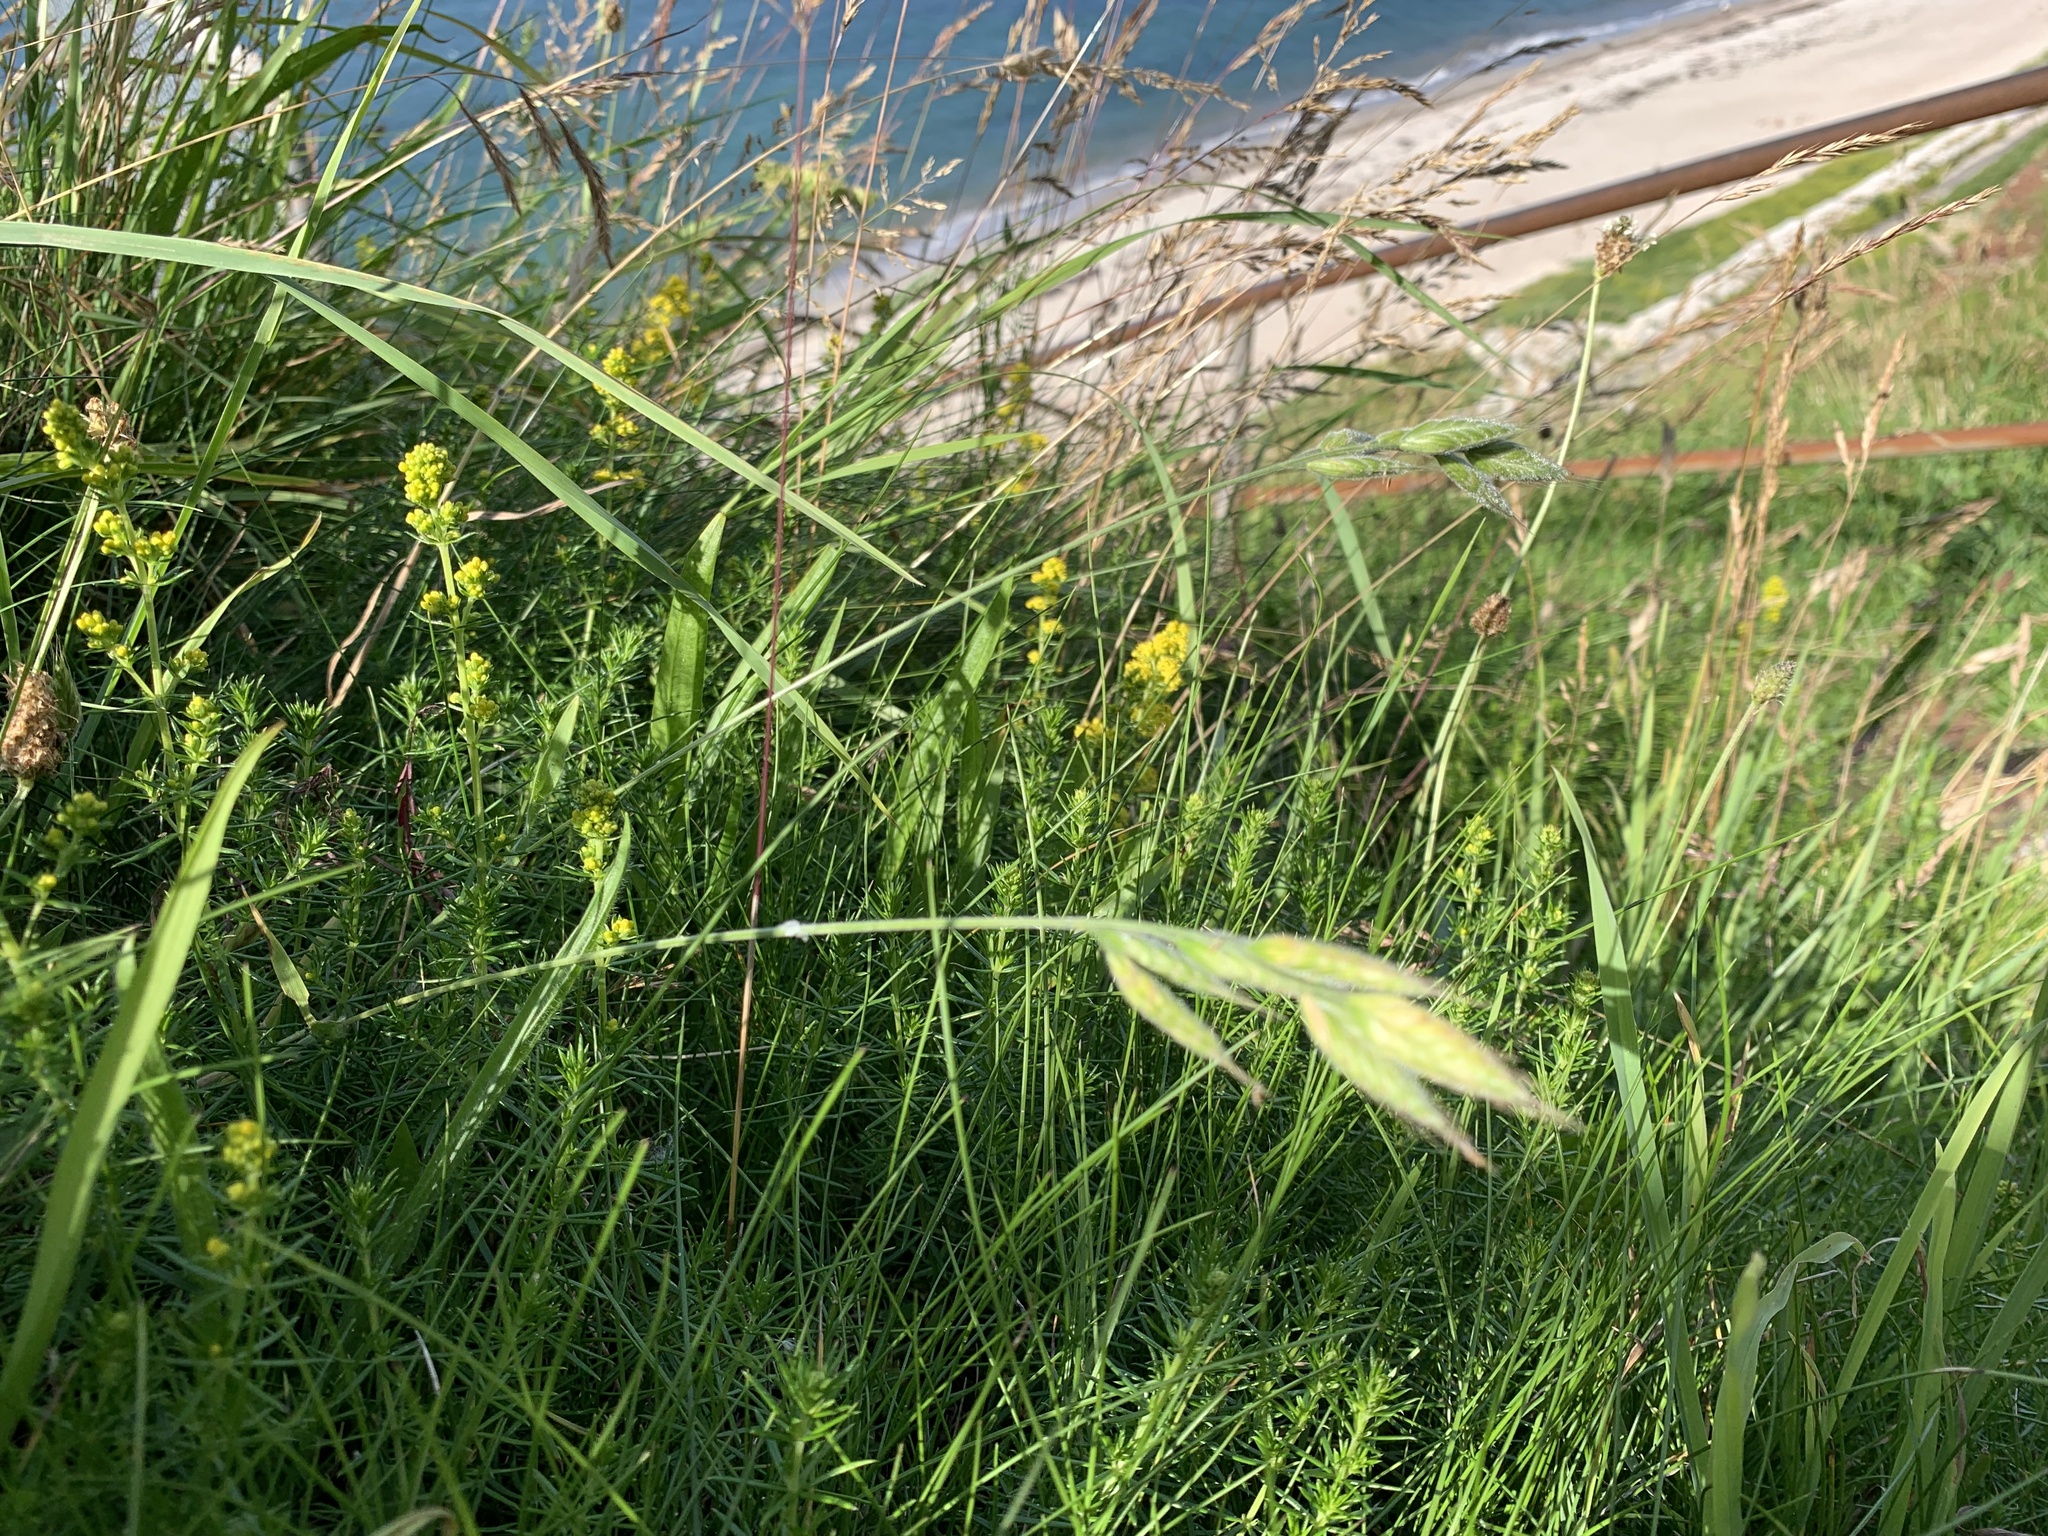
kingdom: Plantae
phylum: Tracheophyta
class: Liliopsida
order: Poales
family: Poaceae
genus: Bromus
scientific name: Bromus hordeaceus
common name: Soft brome
